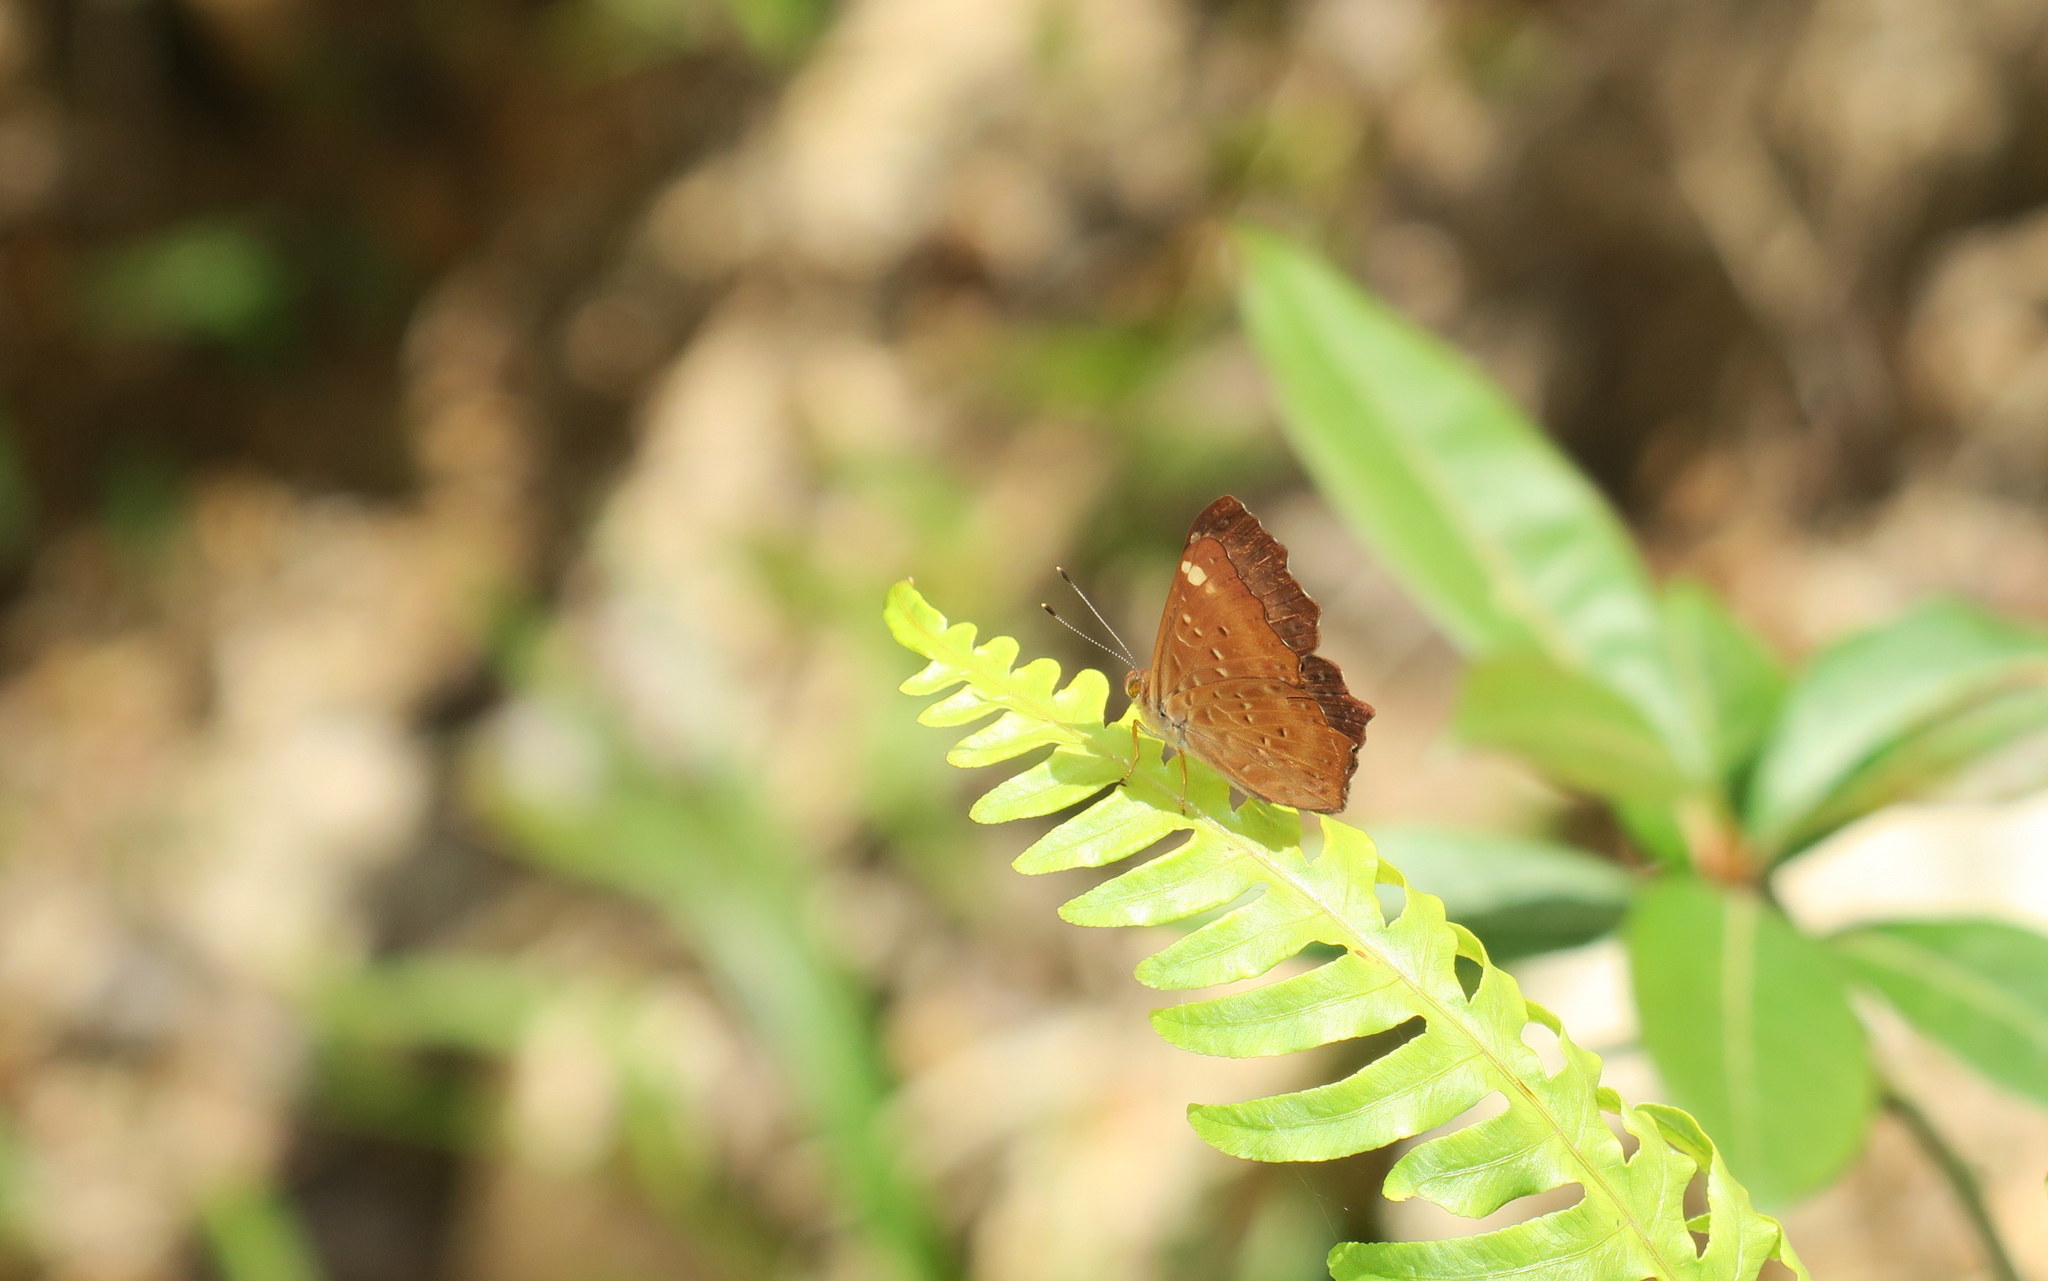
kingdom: Animalia
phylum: Arthropoda
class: Insecta
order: Lepidoptera
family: Riodinidae
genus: Zemeros
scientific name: Zemeros flegyas
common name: Punchinello
